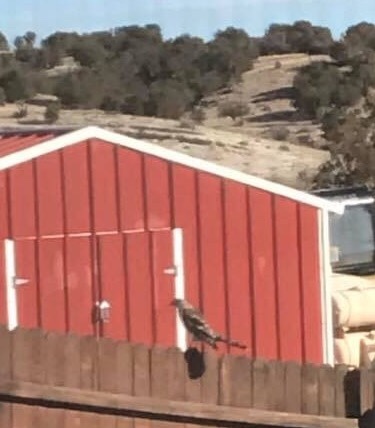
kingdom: Animalia
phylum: Chordata
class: Aves
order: Accipitriformes
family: Accipitridae
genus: Accipiter
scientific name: Accipiter cooperii
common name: Cooper's hawk
